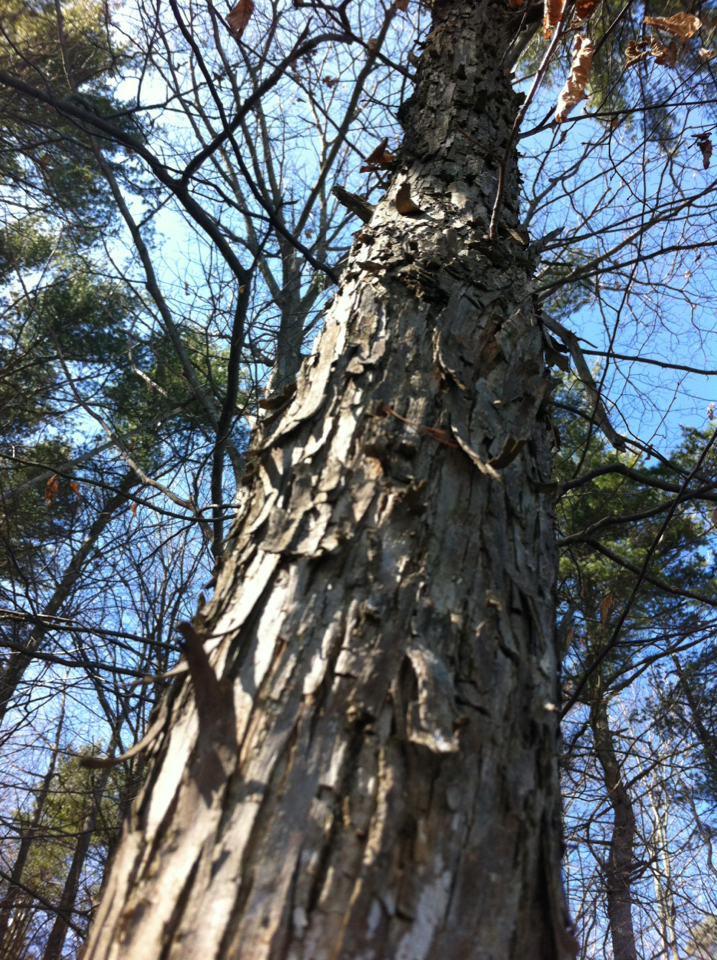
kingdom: Plantae
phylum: Tracheophyta
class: Magnoliopsida
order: Fagales
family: Betulaceae
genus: Ostrya
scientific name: Ostrya virginiana
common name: Ironwood
